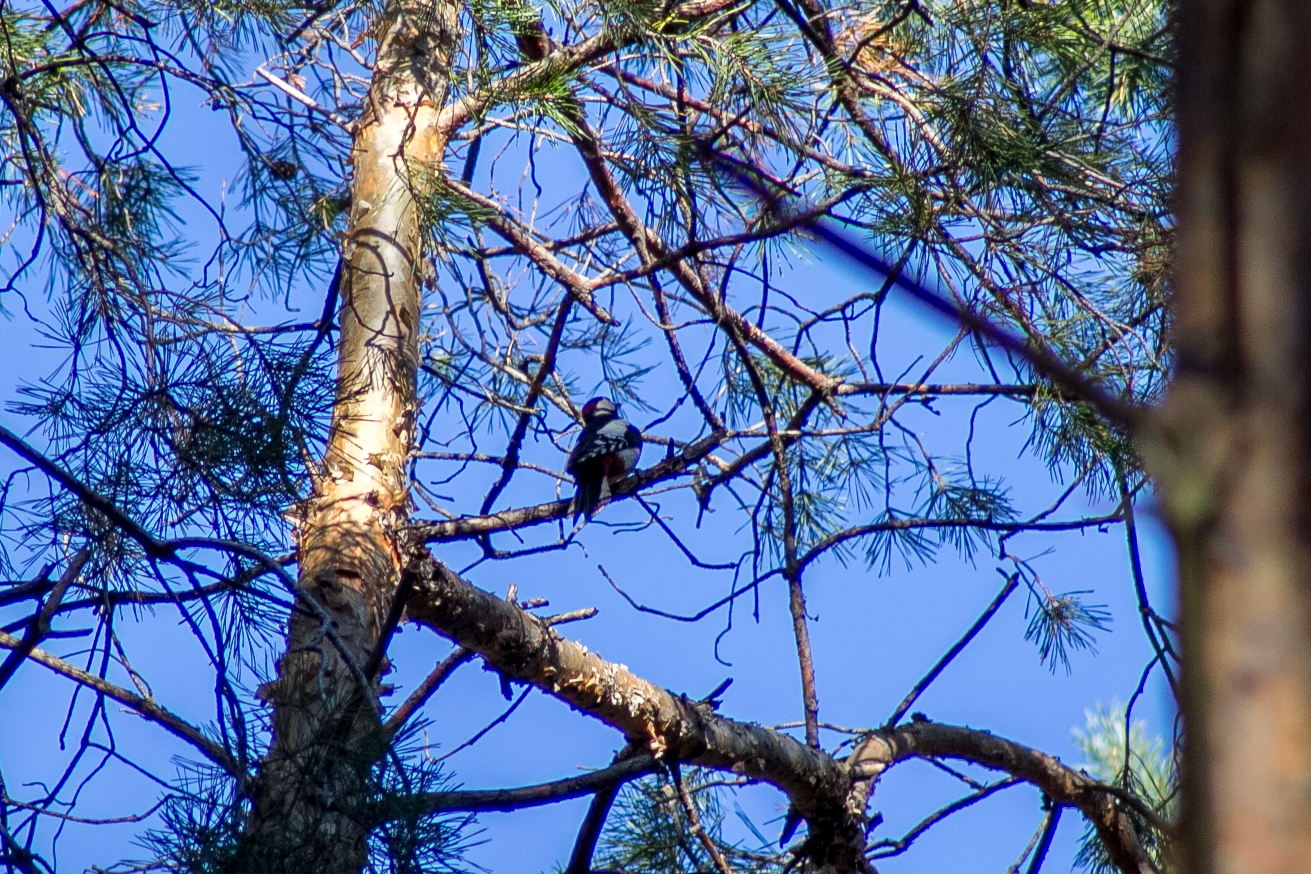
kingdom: Animalia
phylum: Chordata
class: Aves
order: Piciformes
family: Picidae
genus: Dendrocopos
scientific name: Dendrocopos major
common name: Great spotted woodpecker
